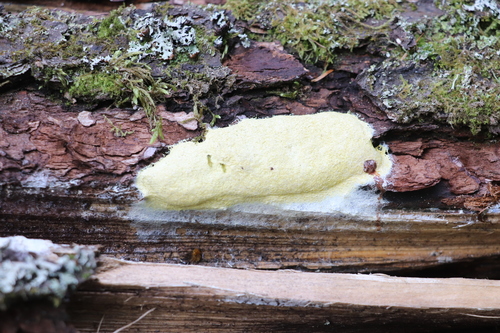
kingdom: Protozoa
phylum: Mycetozoa
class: Myxomycetes
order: Physarales
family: Physaraceae
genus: Fuligo
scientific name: Fuligo septica
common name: Dog vomit slime mold
